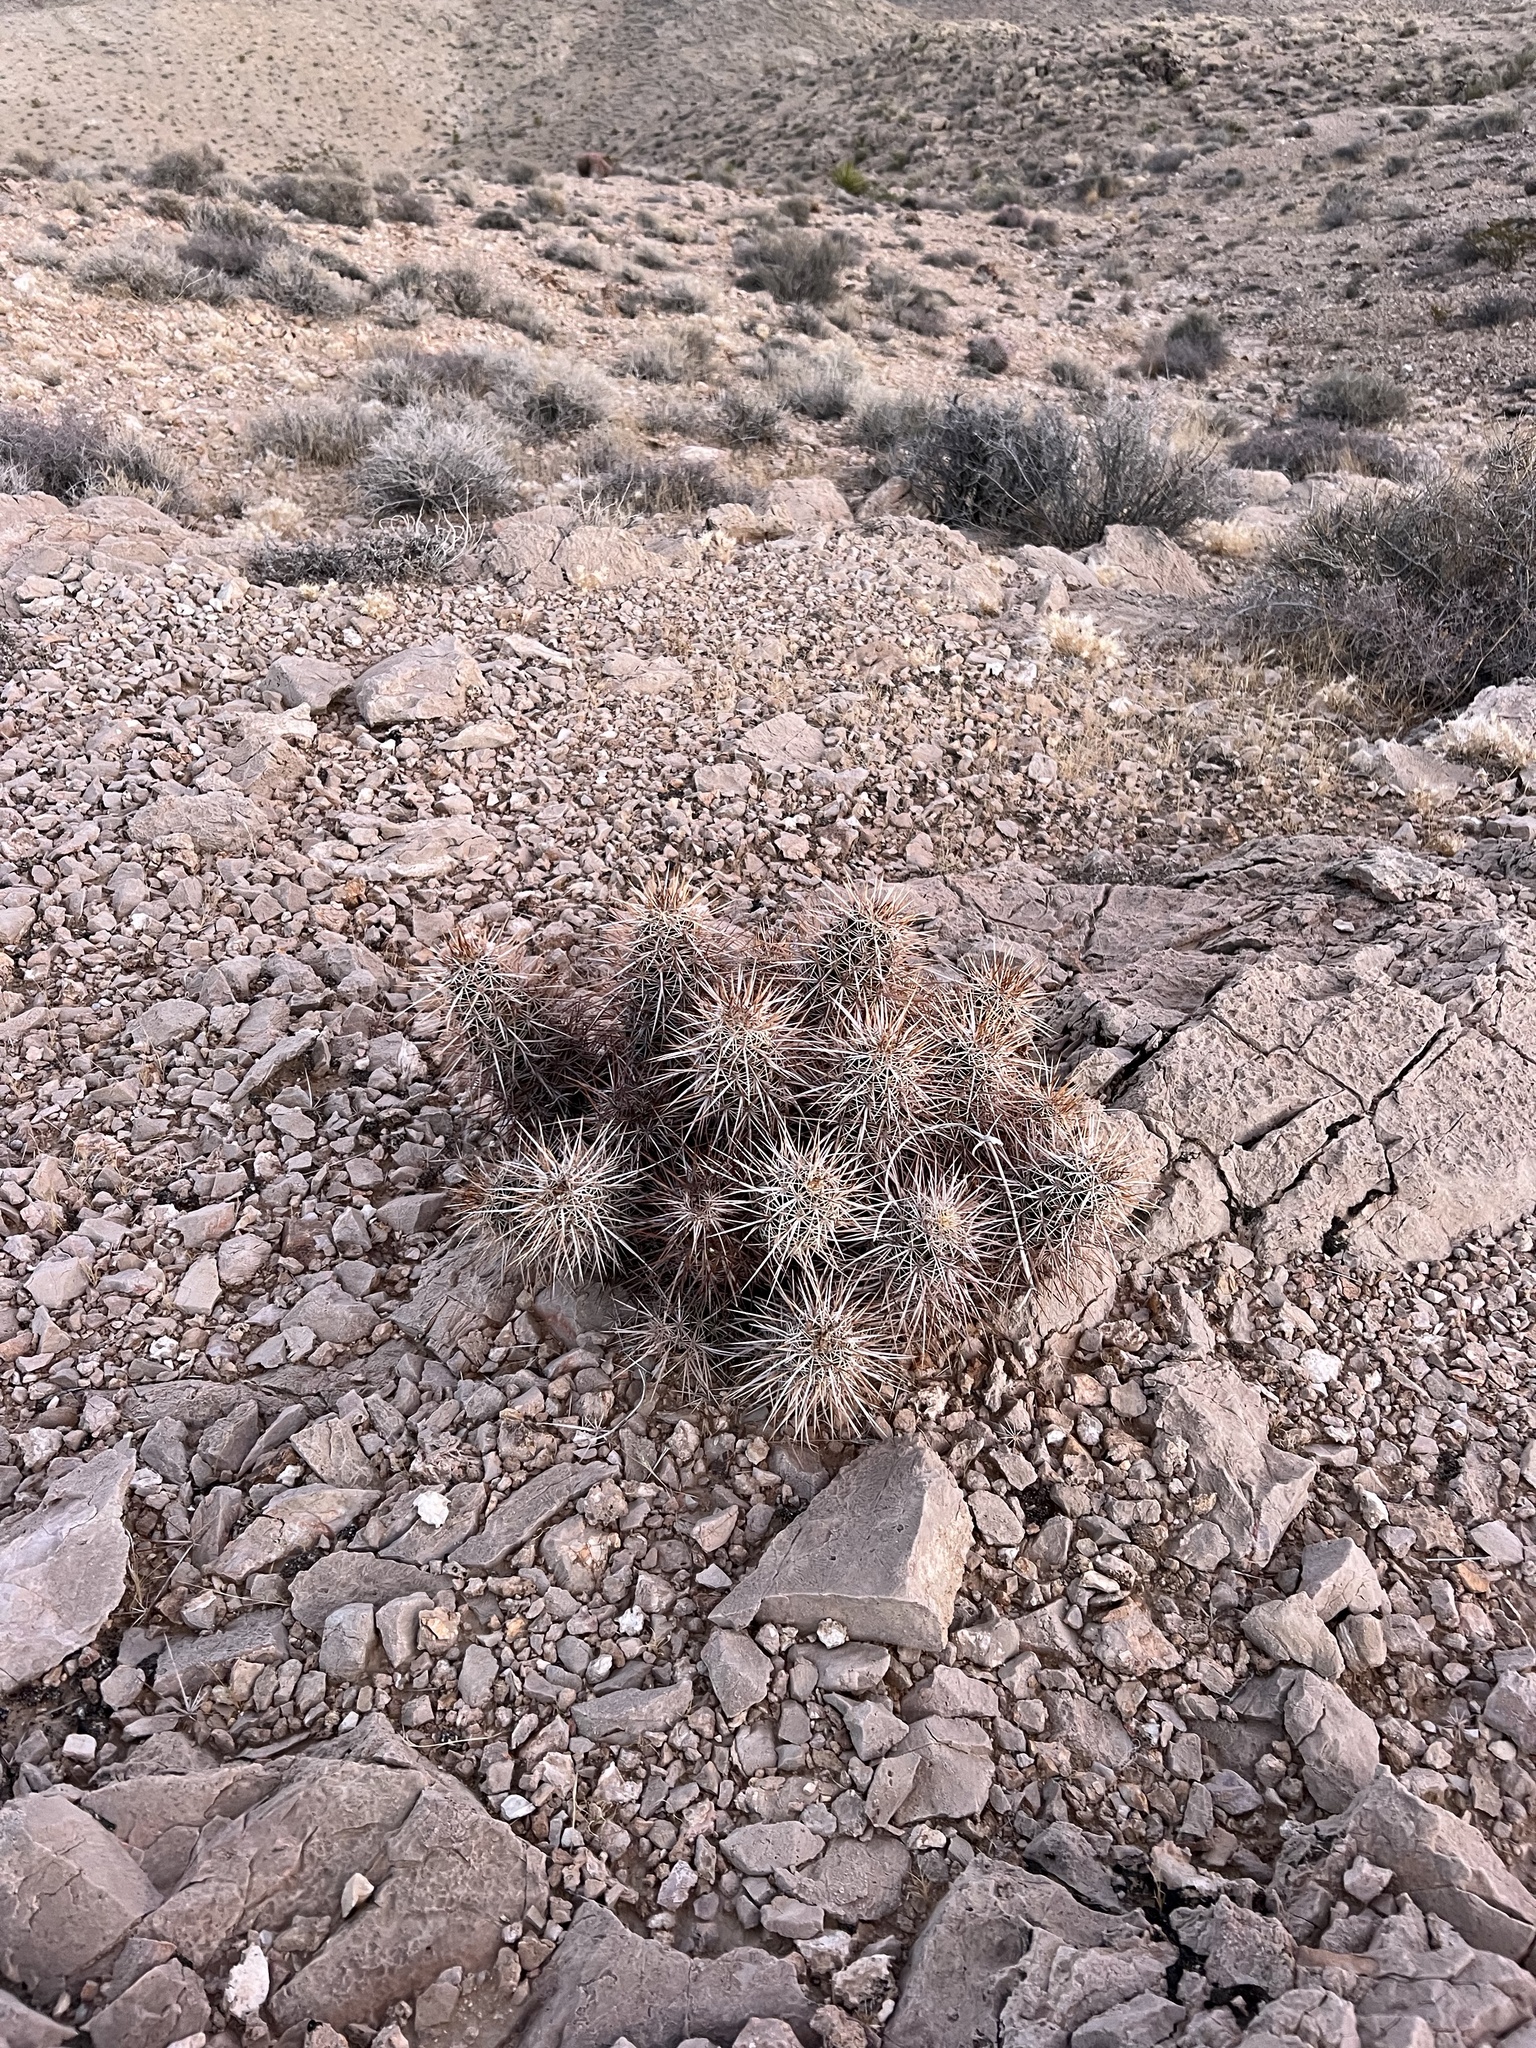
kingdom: Plantae
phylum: Tracheophyta
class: Magnoliopsida
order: Caryophyllales
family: Cactaceae
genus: Echinocereus
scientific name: Echinocereus engelmannii
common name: Engelmann's hedgehog cactus
